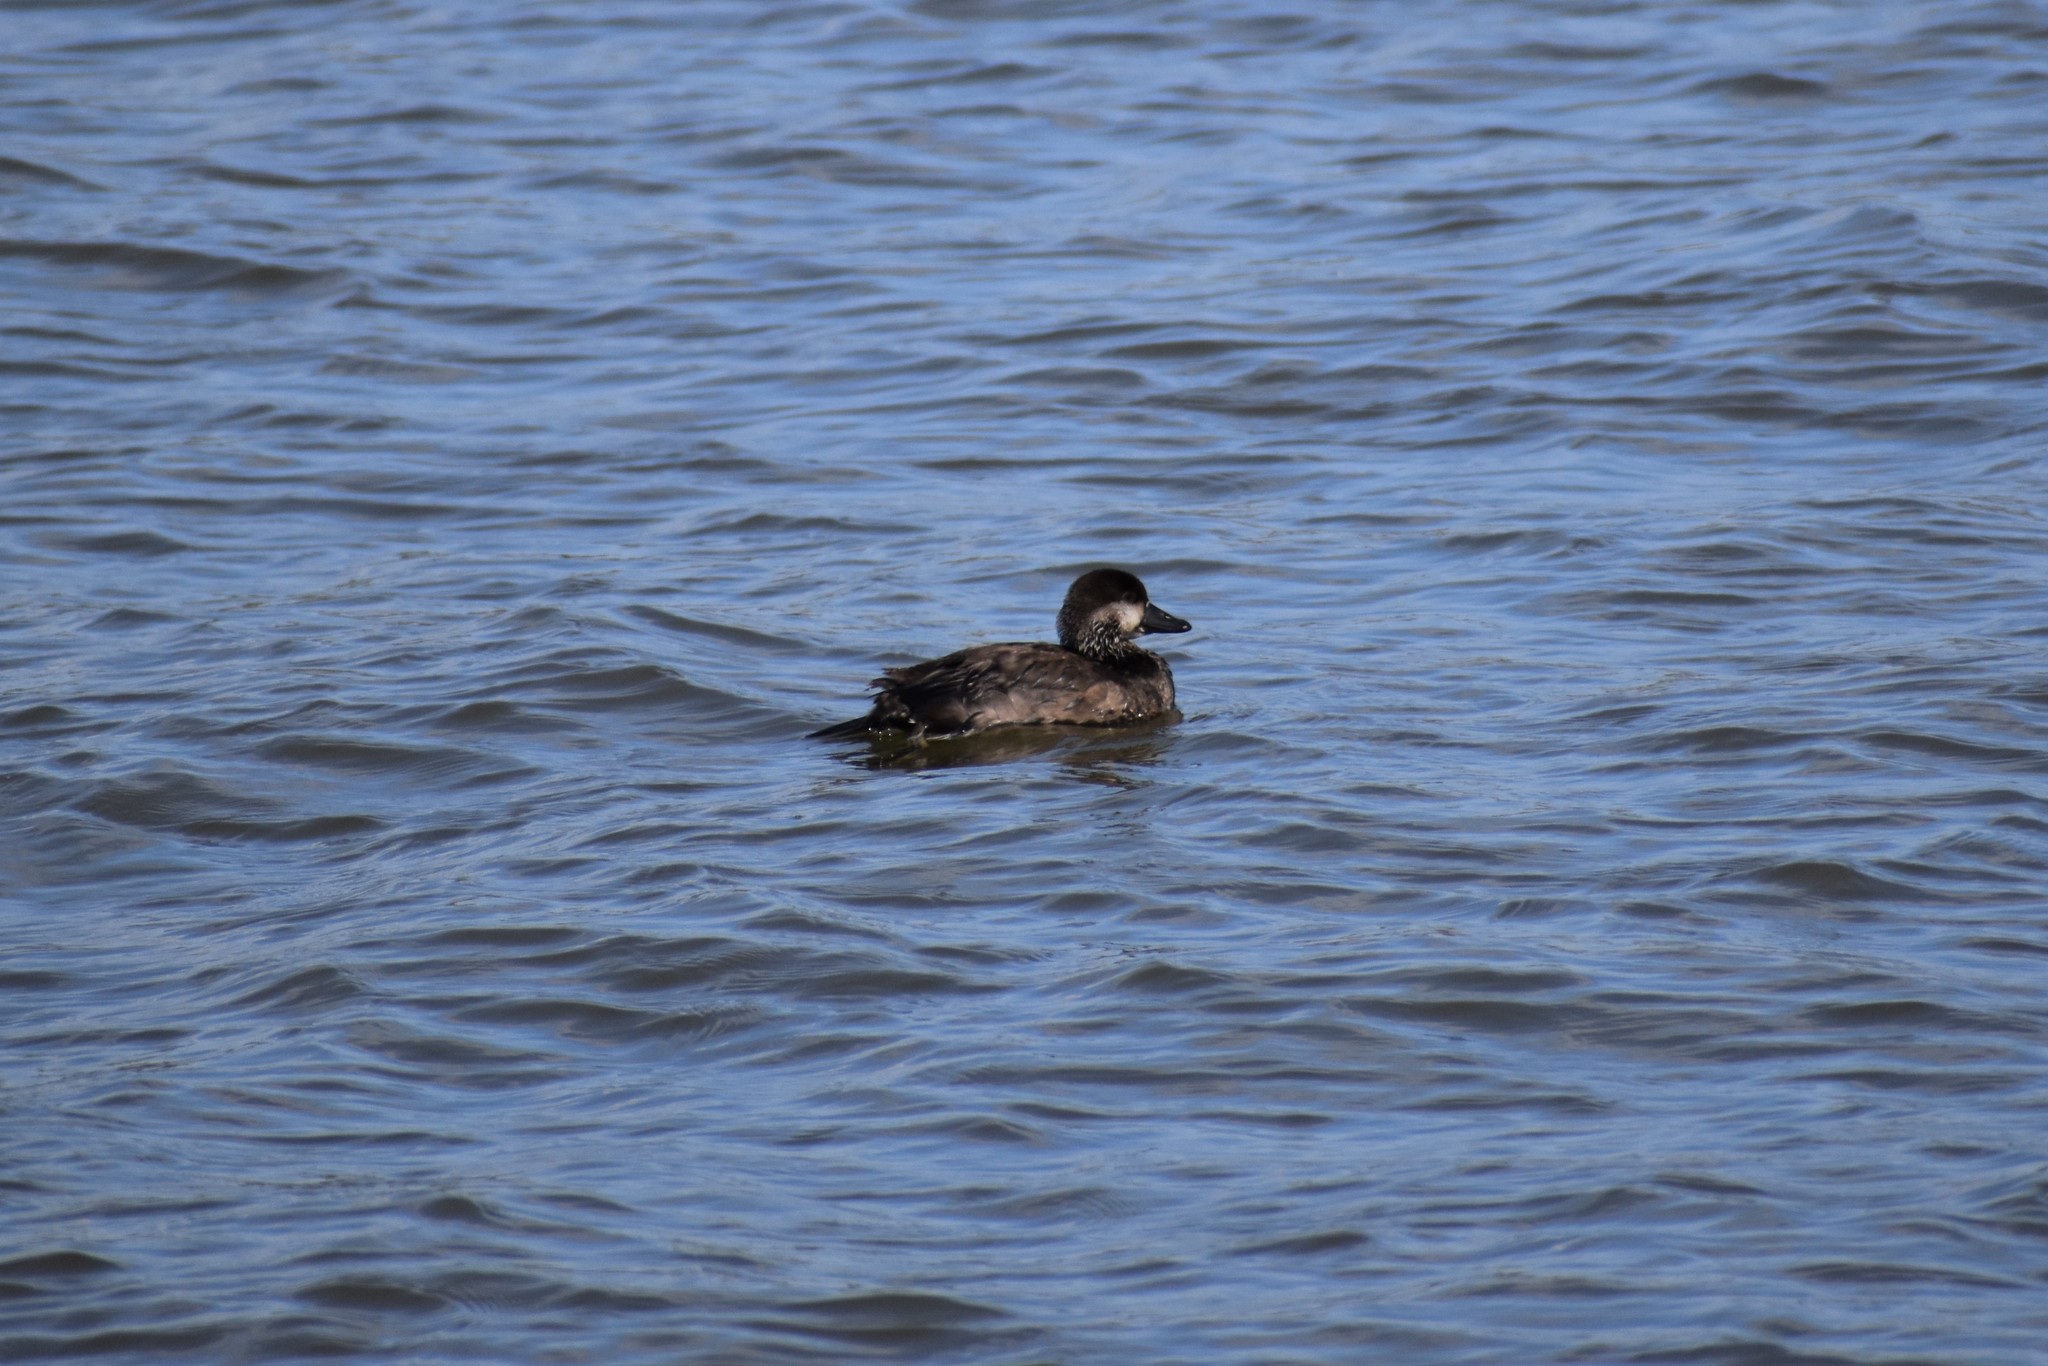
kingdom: Animalia
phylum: Chordata
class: Aves
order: Anseriformes
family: Anatidae
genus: Melanitta
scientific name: Melanitta americana
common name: Black scoter
